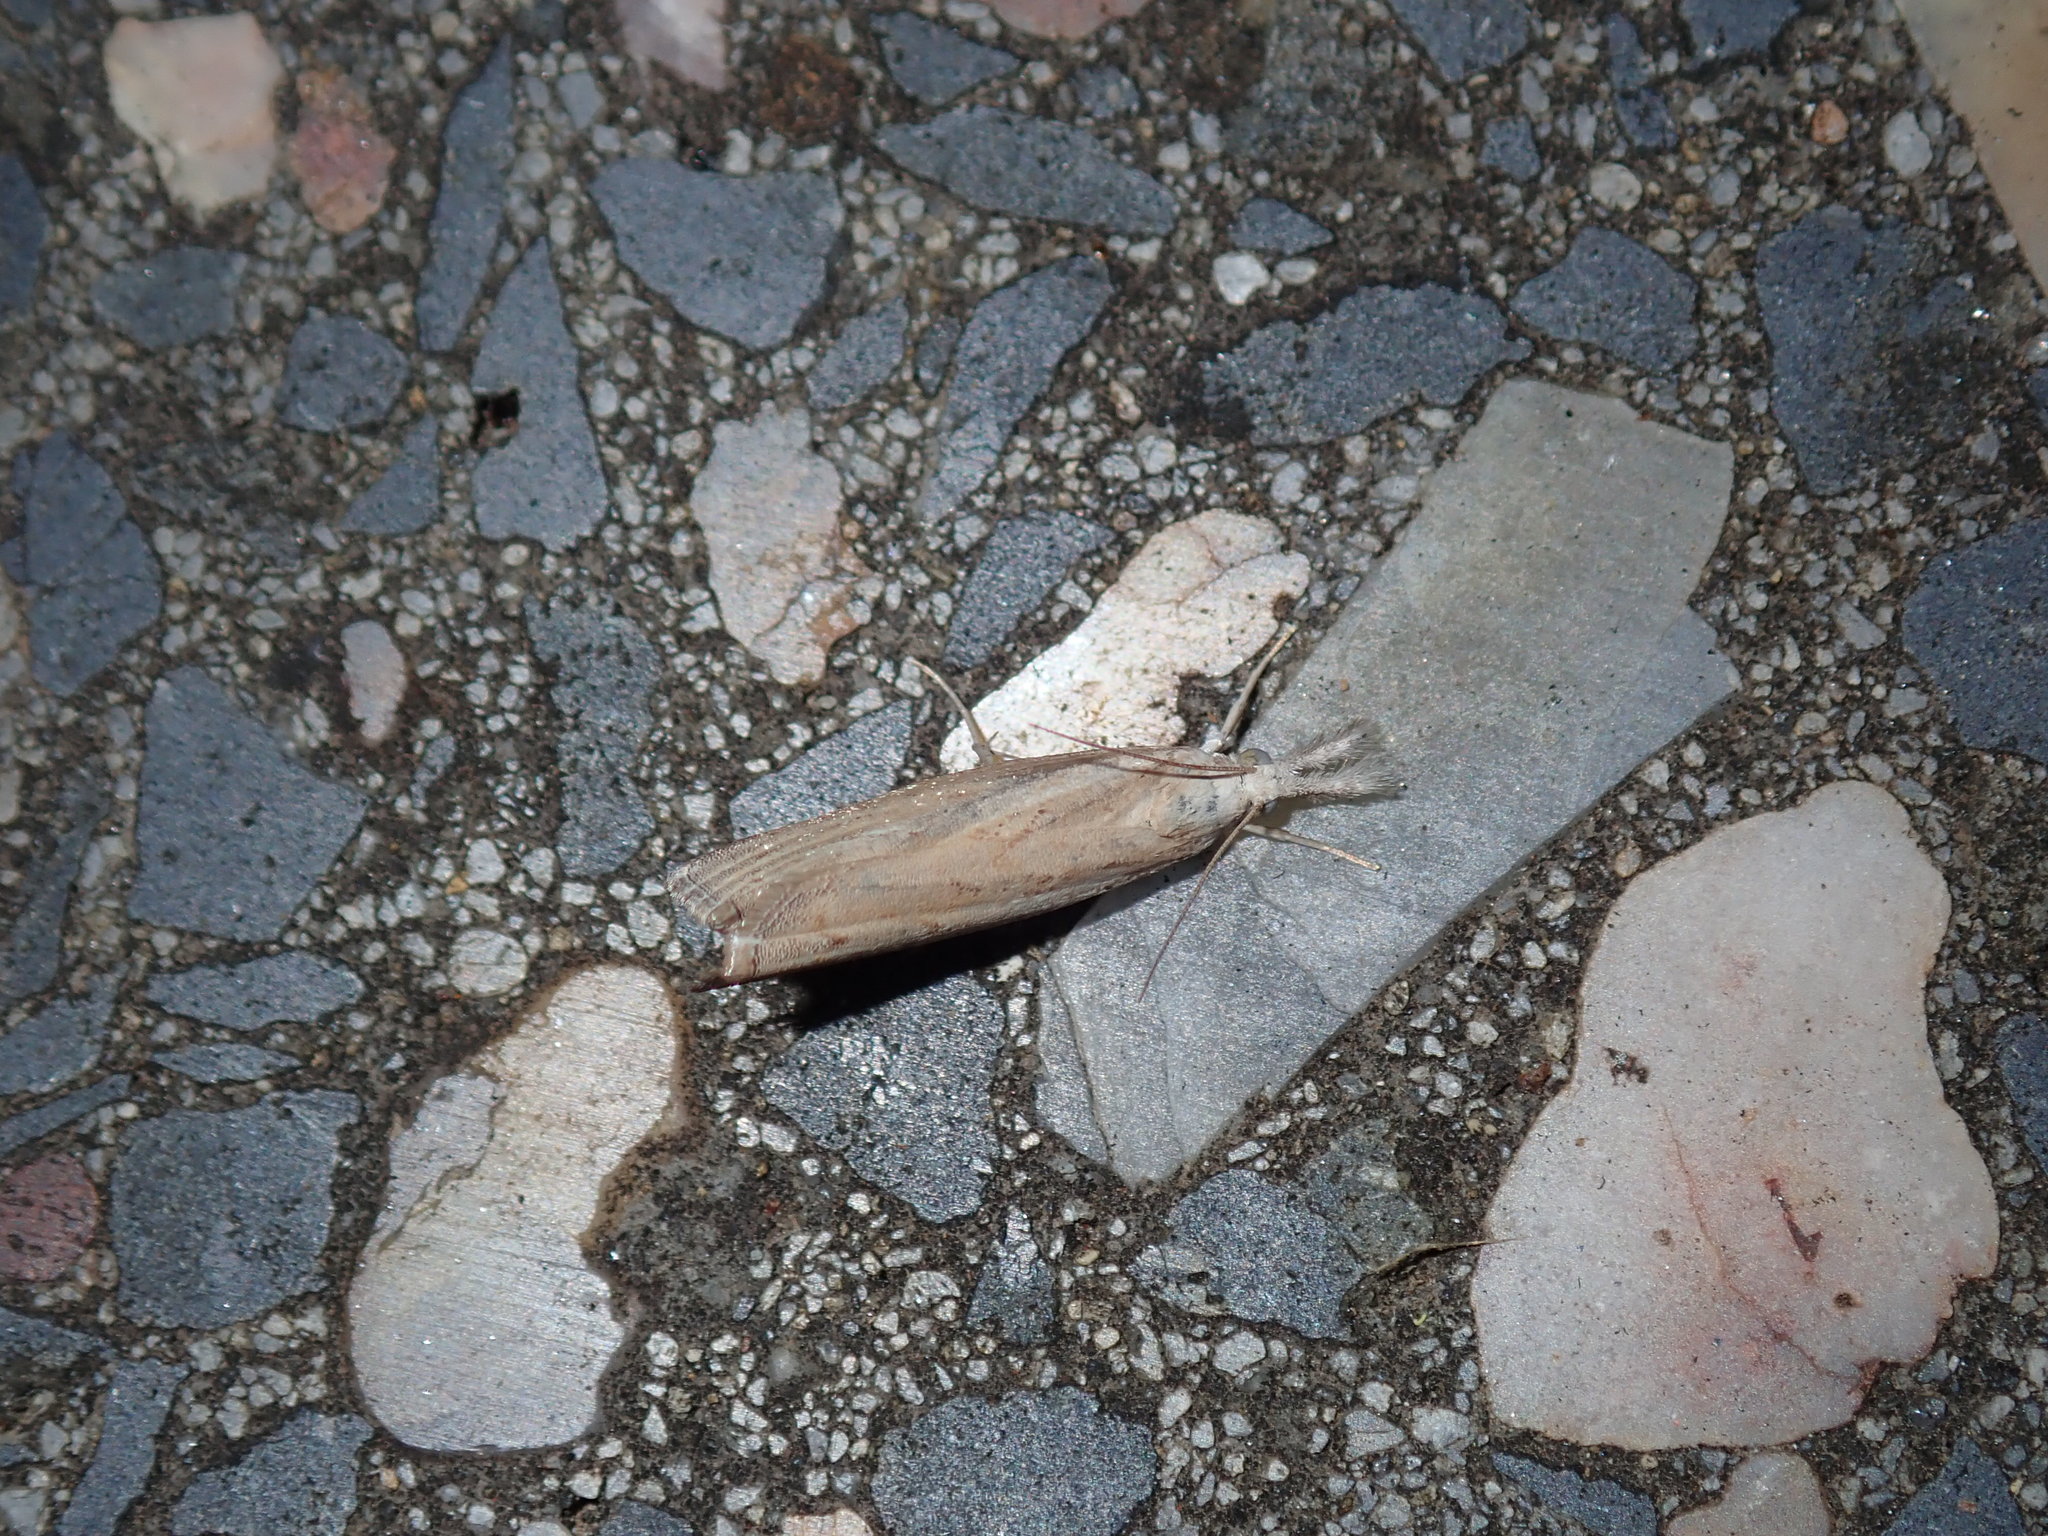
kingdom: Animalia
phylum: Arthropoda
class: Insecta
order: Lepidoptera
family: Crambidae
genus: Culladia
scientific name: Culladia cuneiferellus
